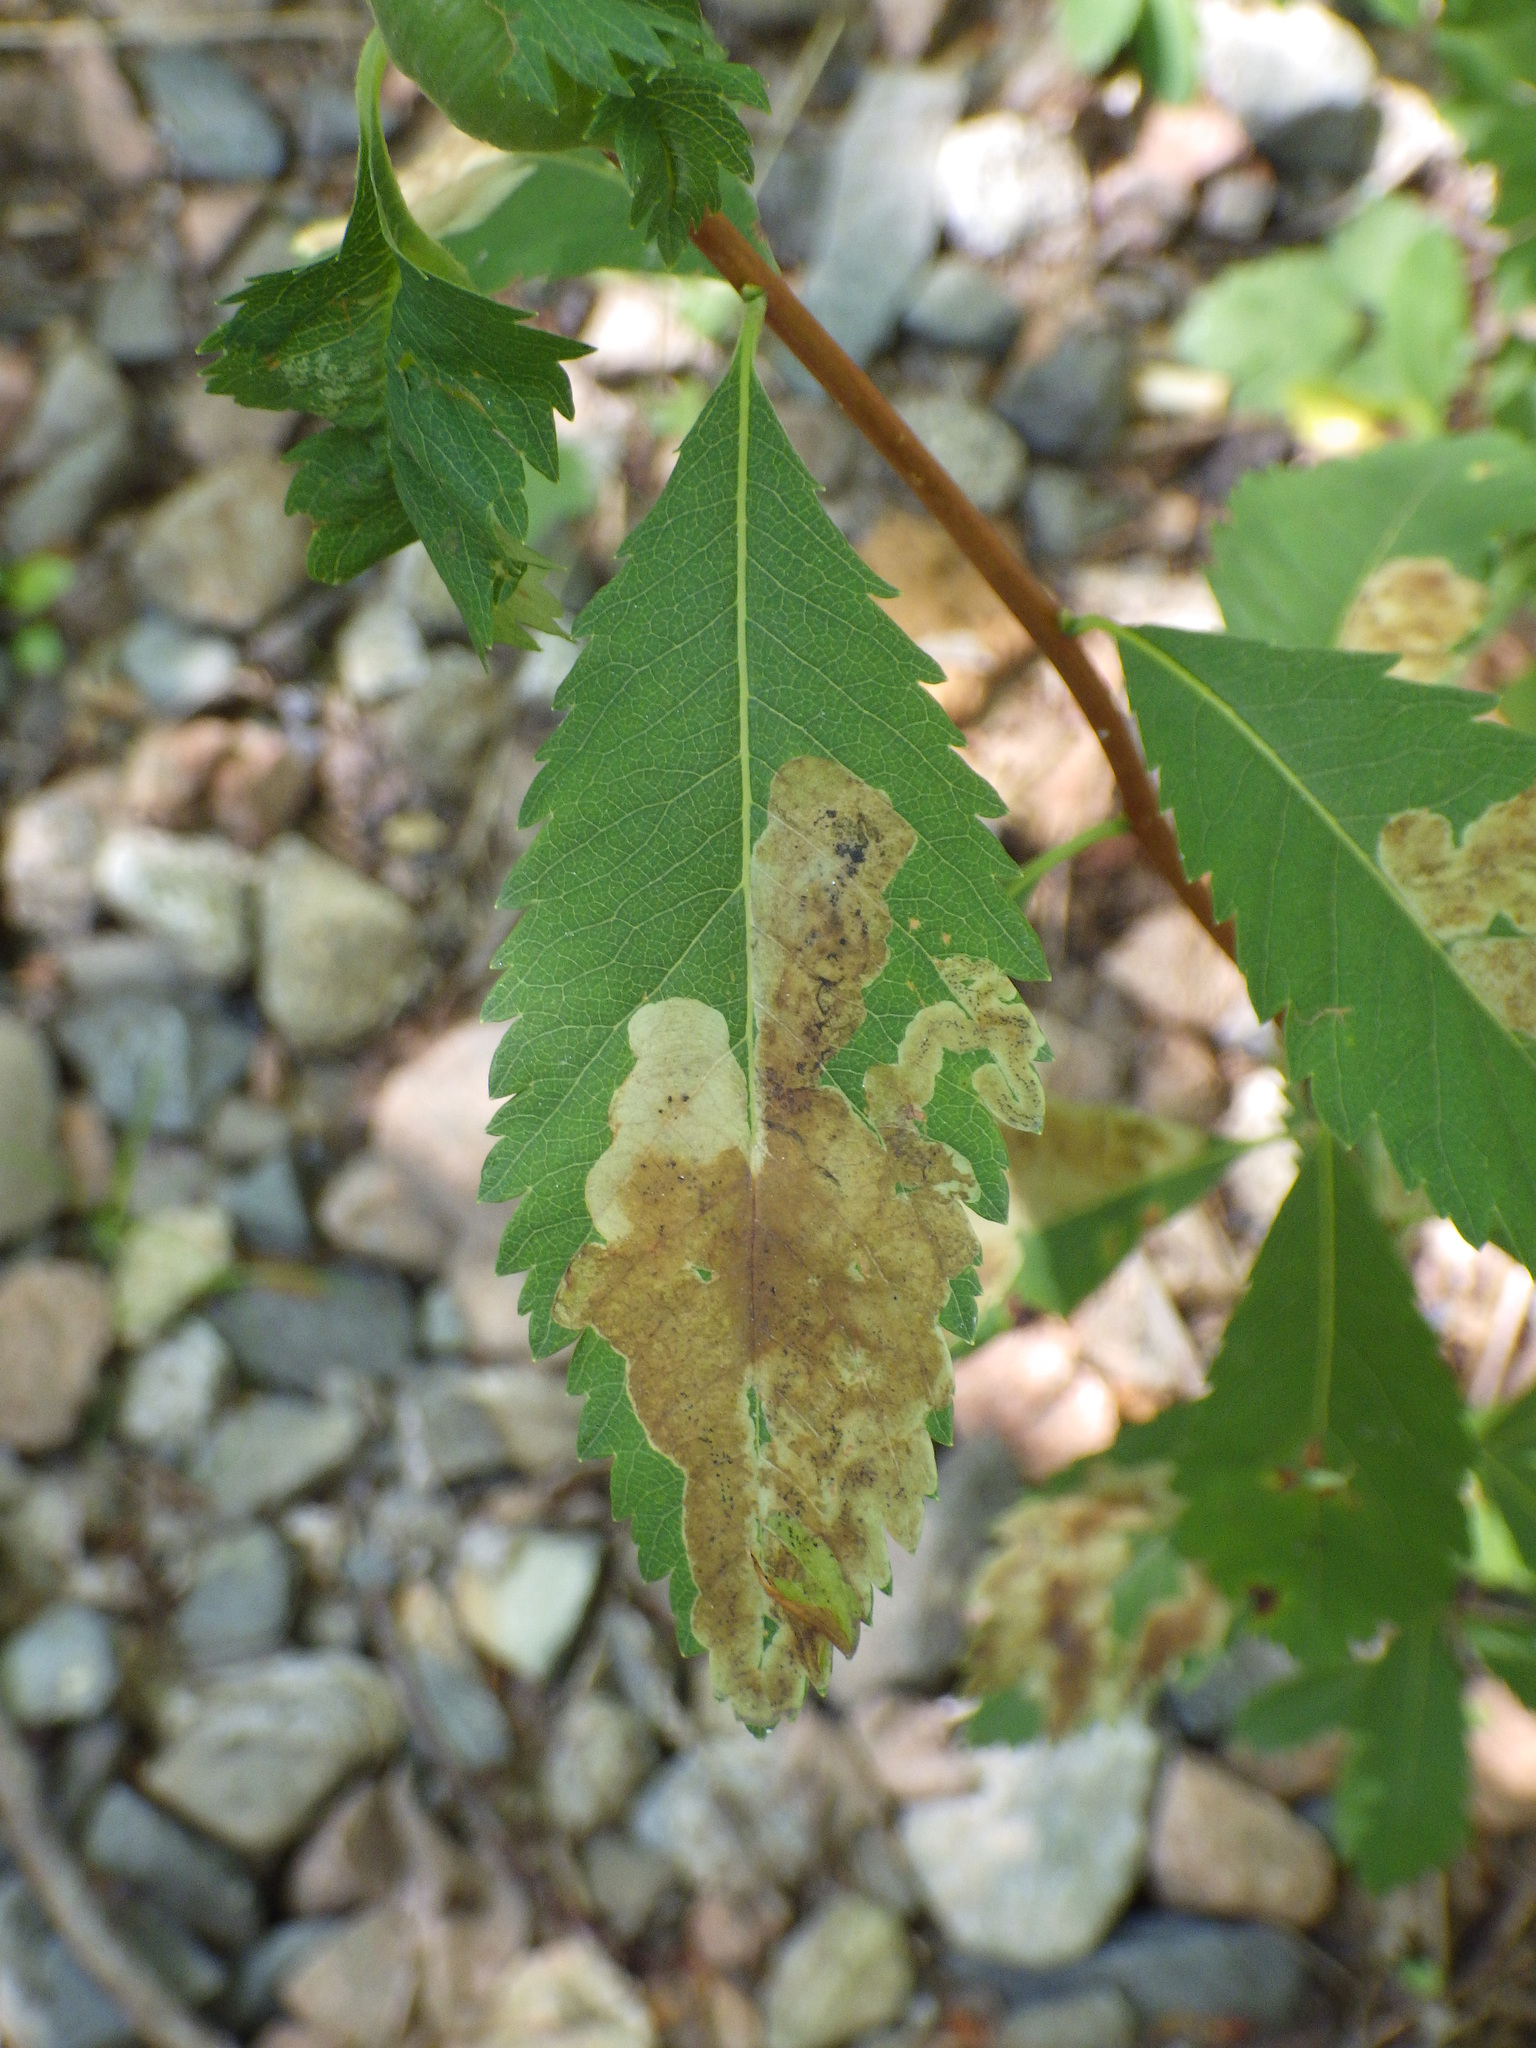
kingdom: Animalia
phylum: Arthropoda
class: Insecta
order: Diptera
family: Agromyzidae
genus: Agromyza
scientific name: Agromyza valdorensis
